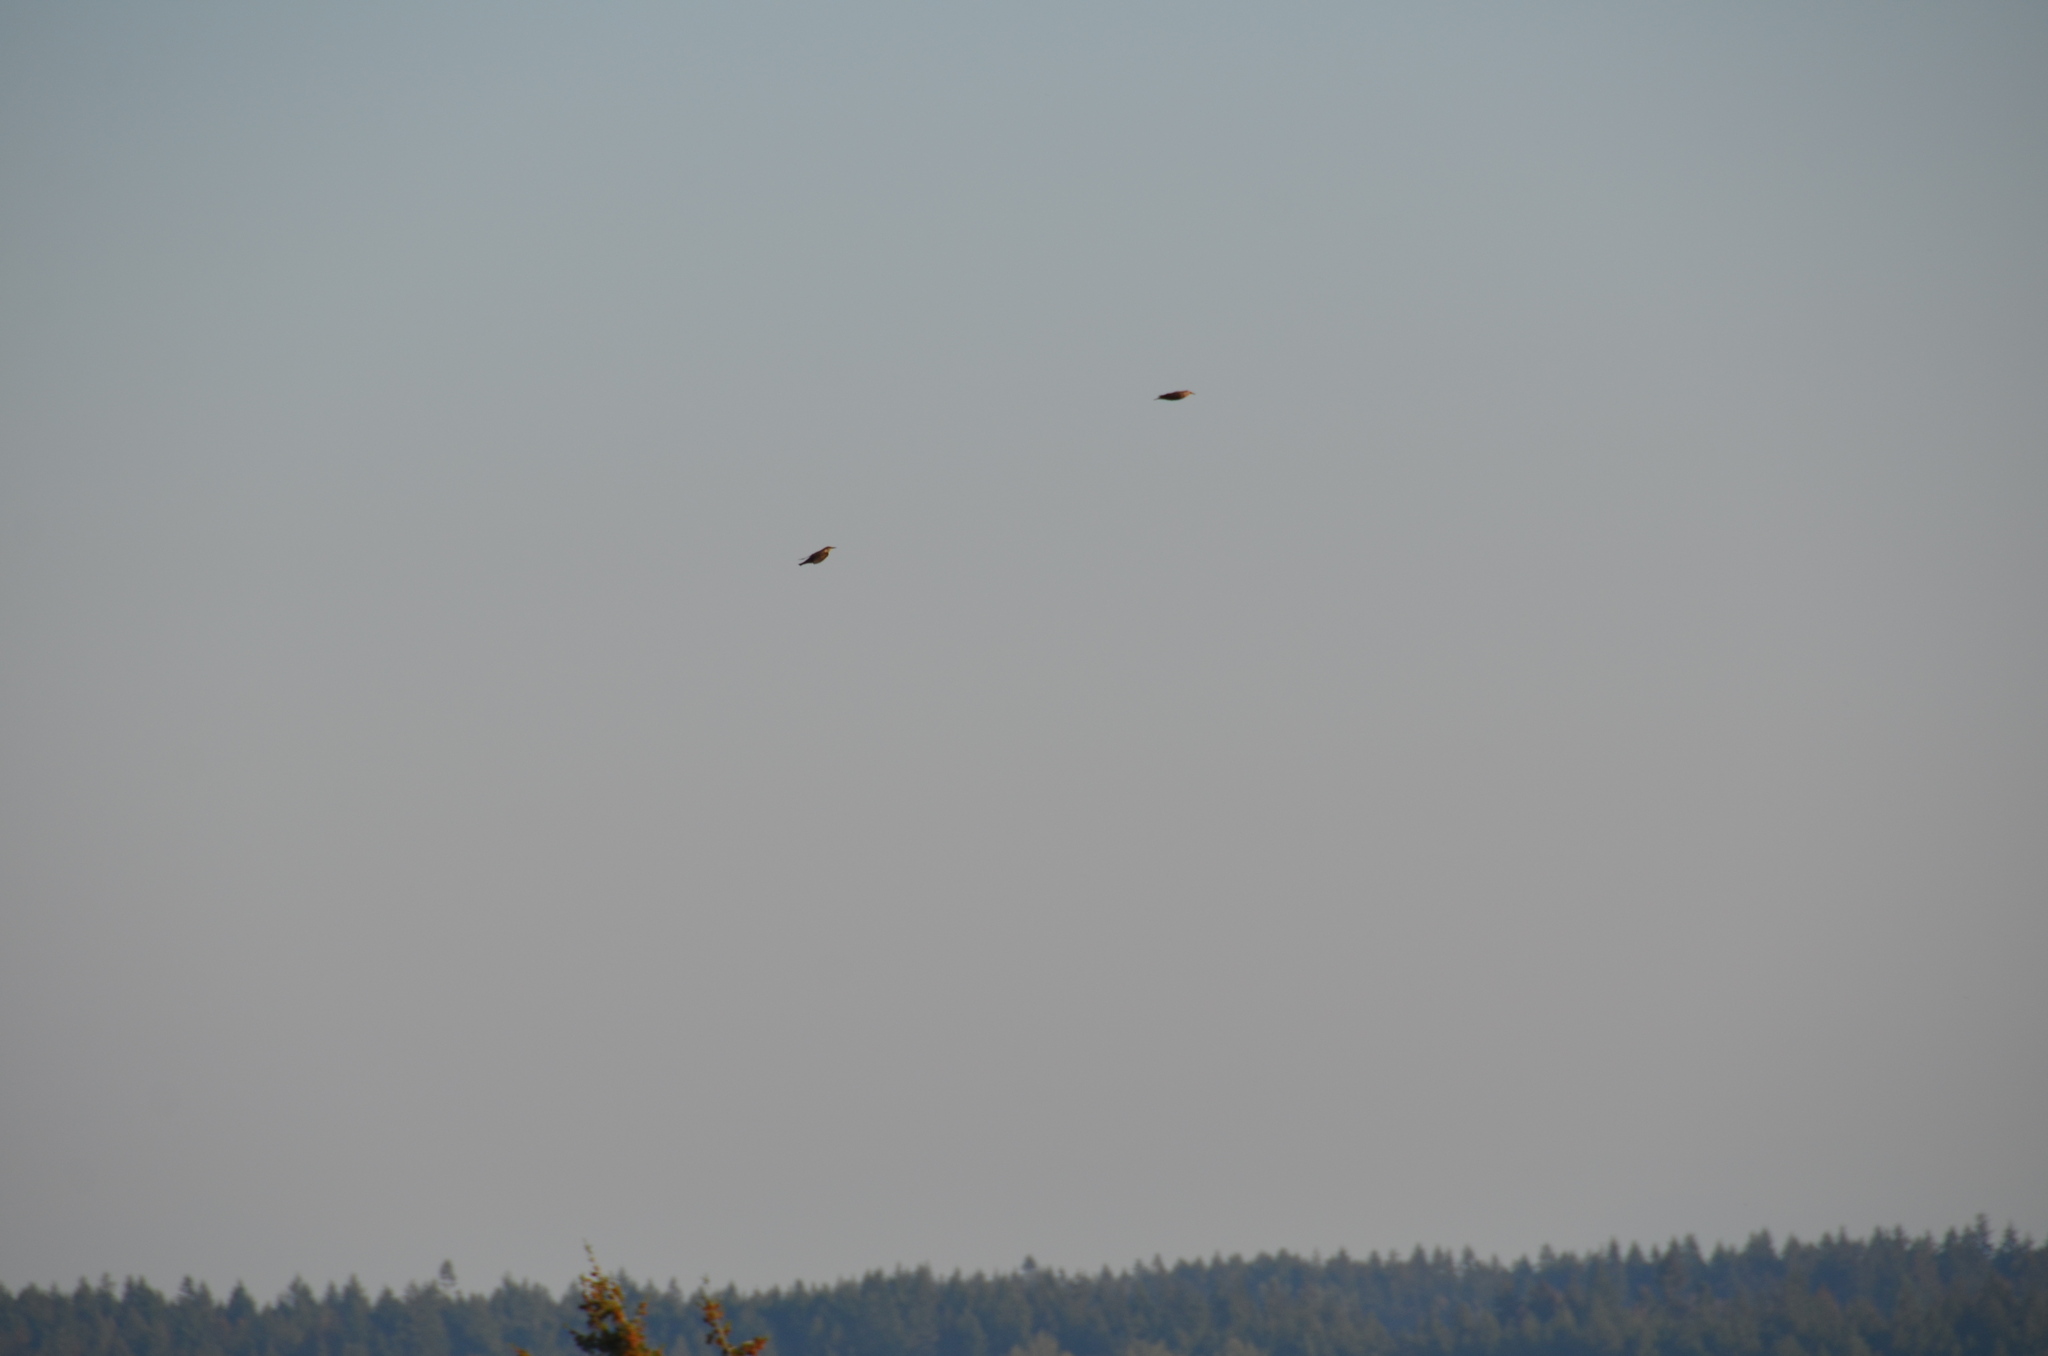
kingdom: Animalia
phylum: Chordata
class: Aves
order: Passeriformes
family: Sturnidae
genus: Sturnus
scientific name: Sturnus vulgaris
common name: Common starling
